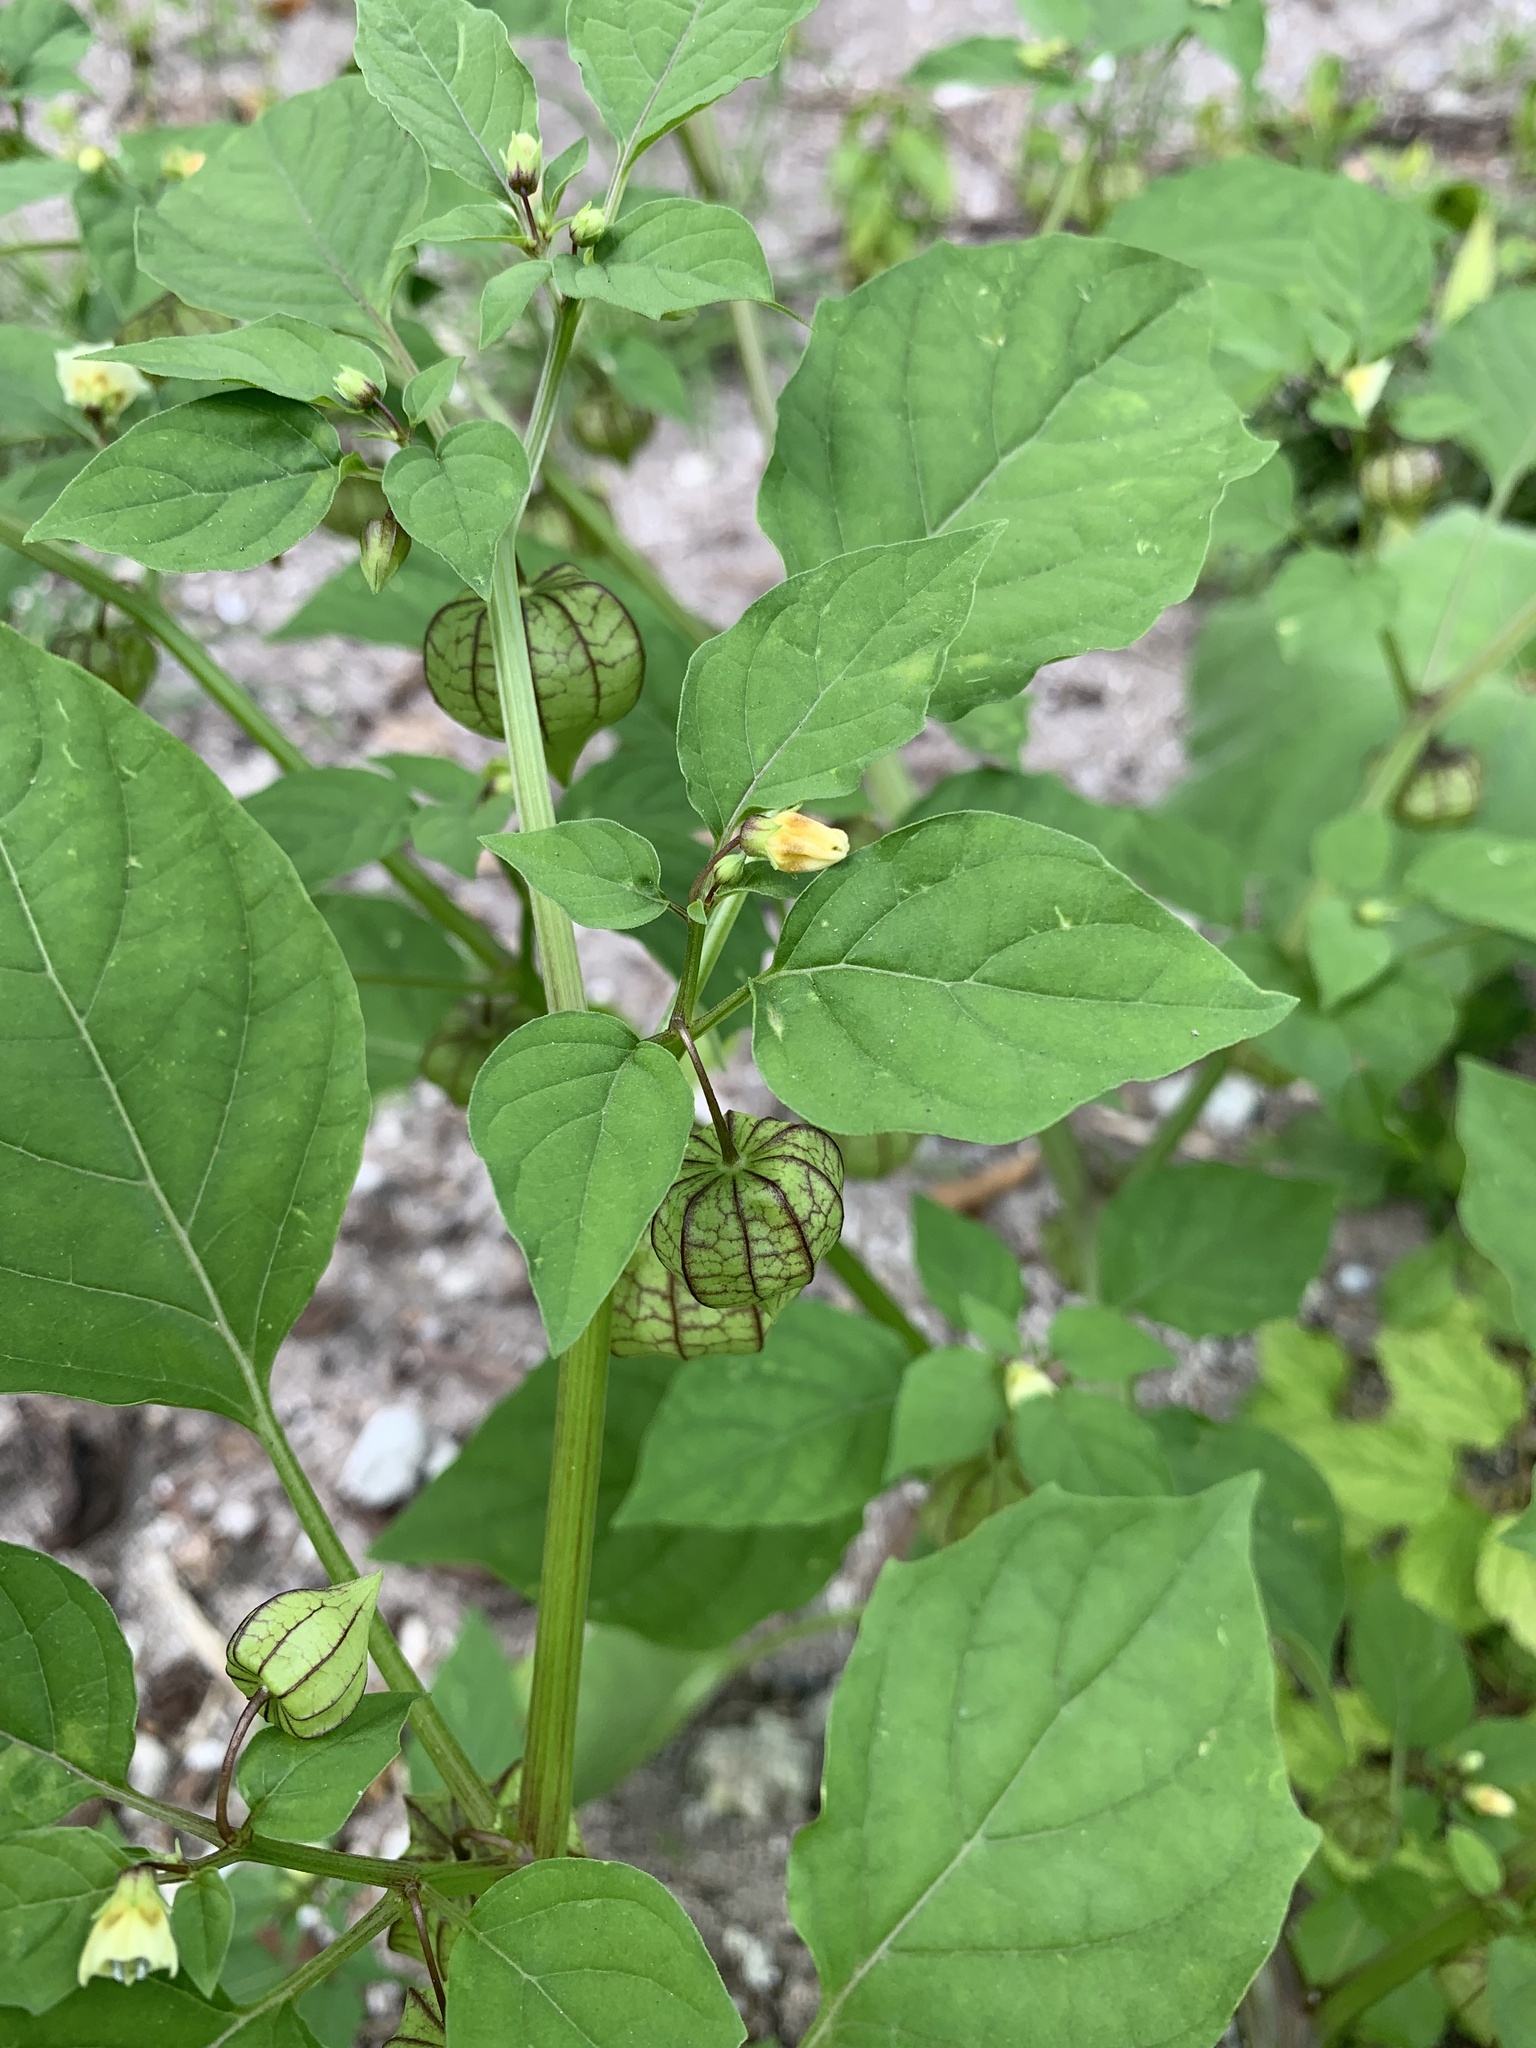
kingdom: Plantae
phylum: Tracheophyta
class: Magnoliopsida
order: Solanales
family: Solanaceae
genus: Physalis
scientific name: Physalis angulata
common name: Angular winter-cherry
